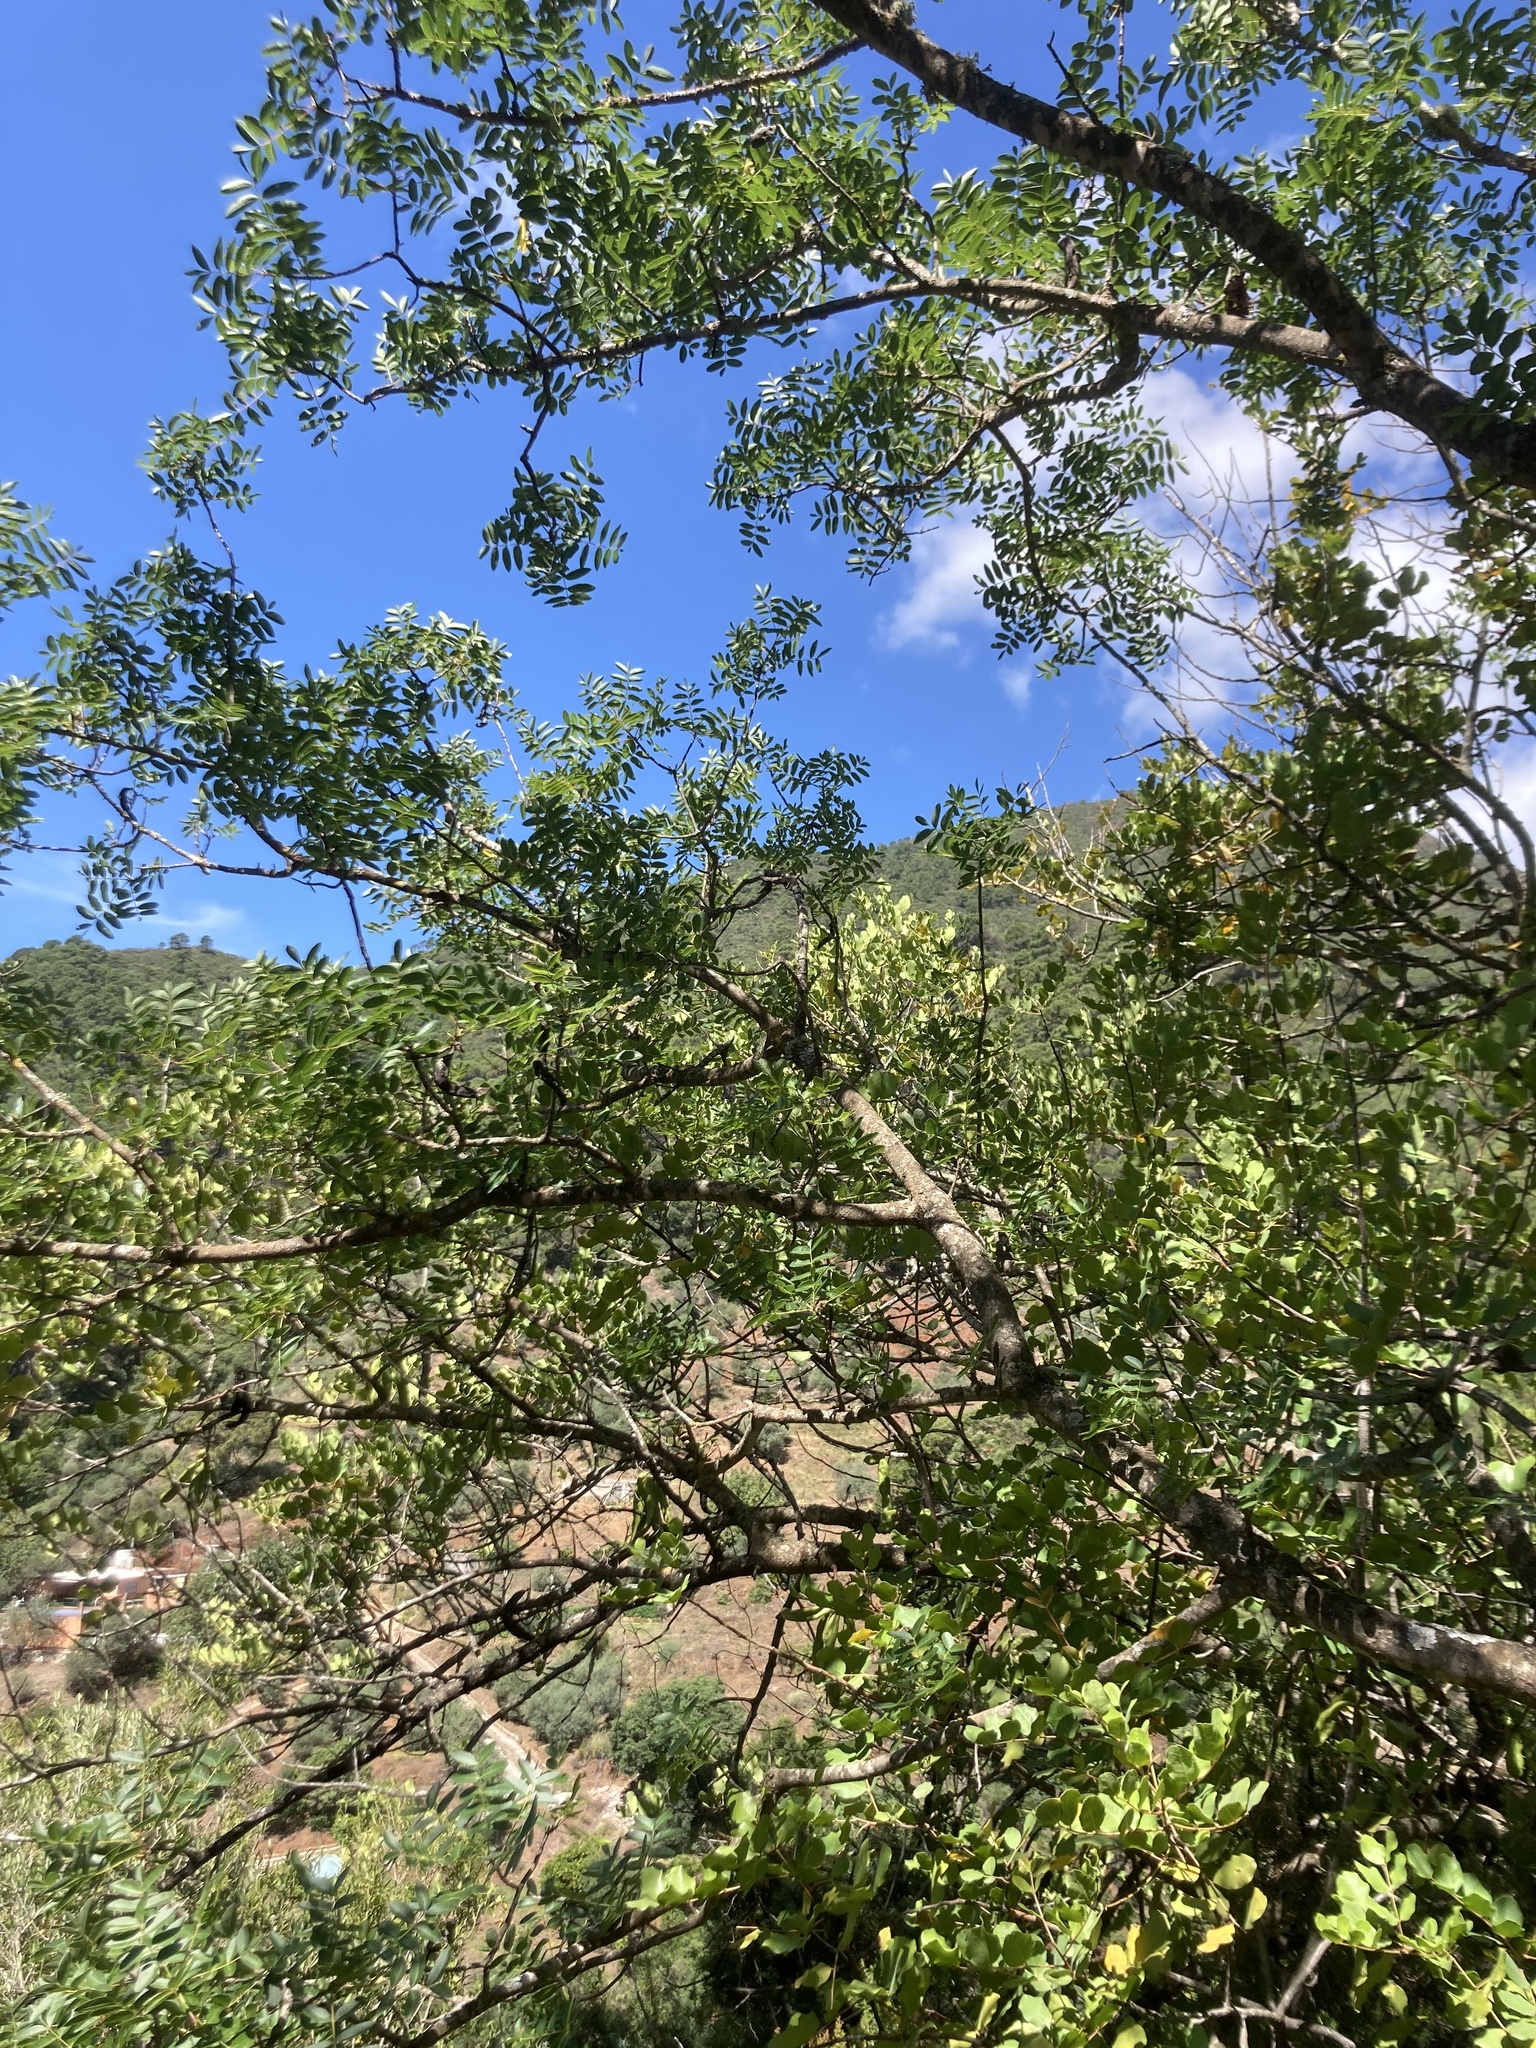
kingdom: Plantae
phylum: Tracheophyta
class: Magnoliopsida
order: Fabales
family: Fabaceae
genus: Ceratonia
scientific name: Ceratonia siliqua
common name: Carob
